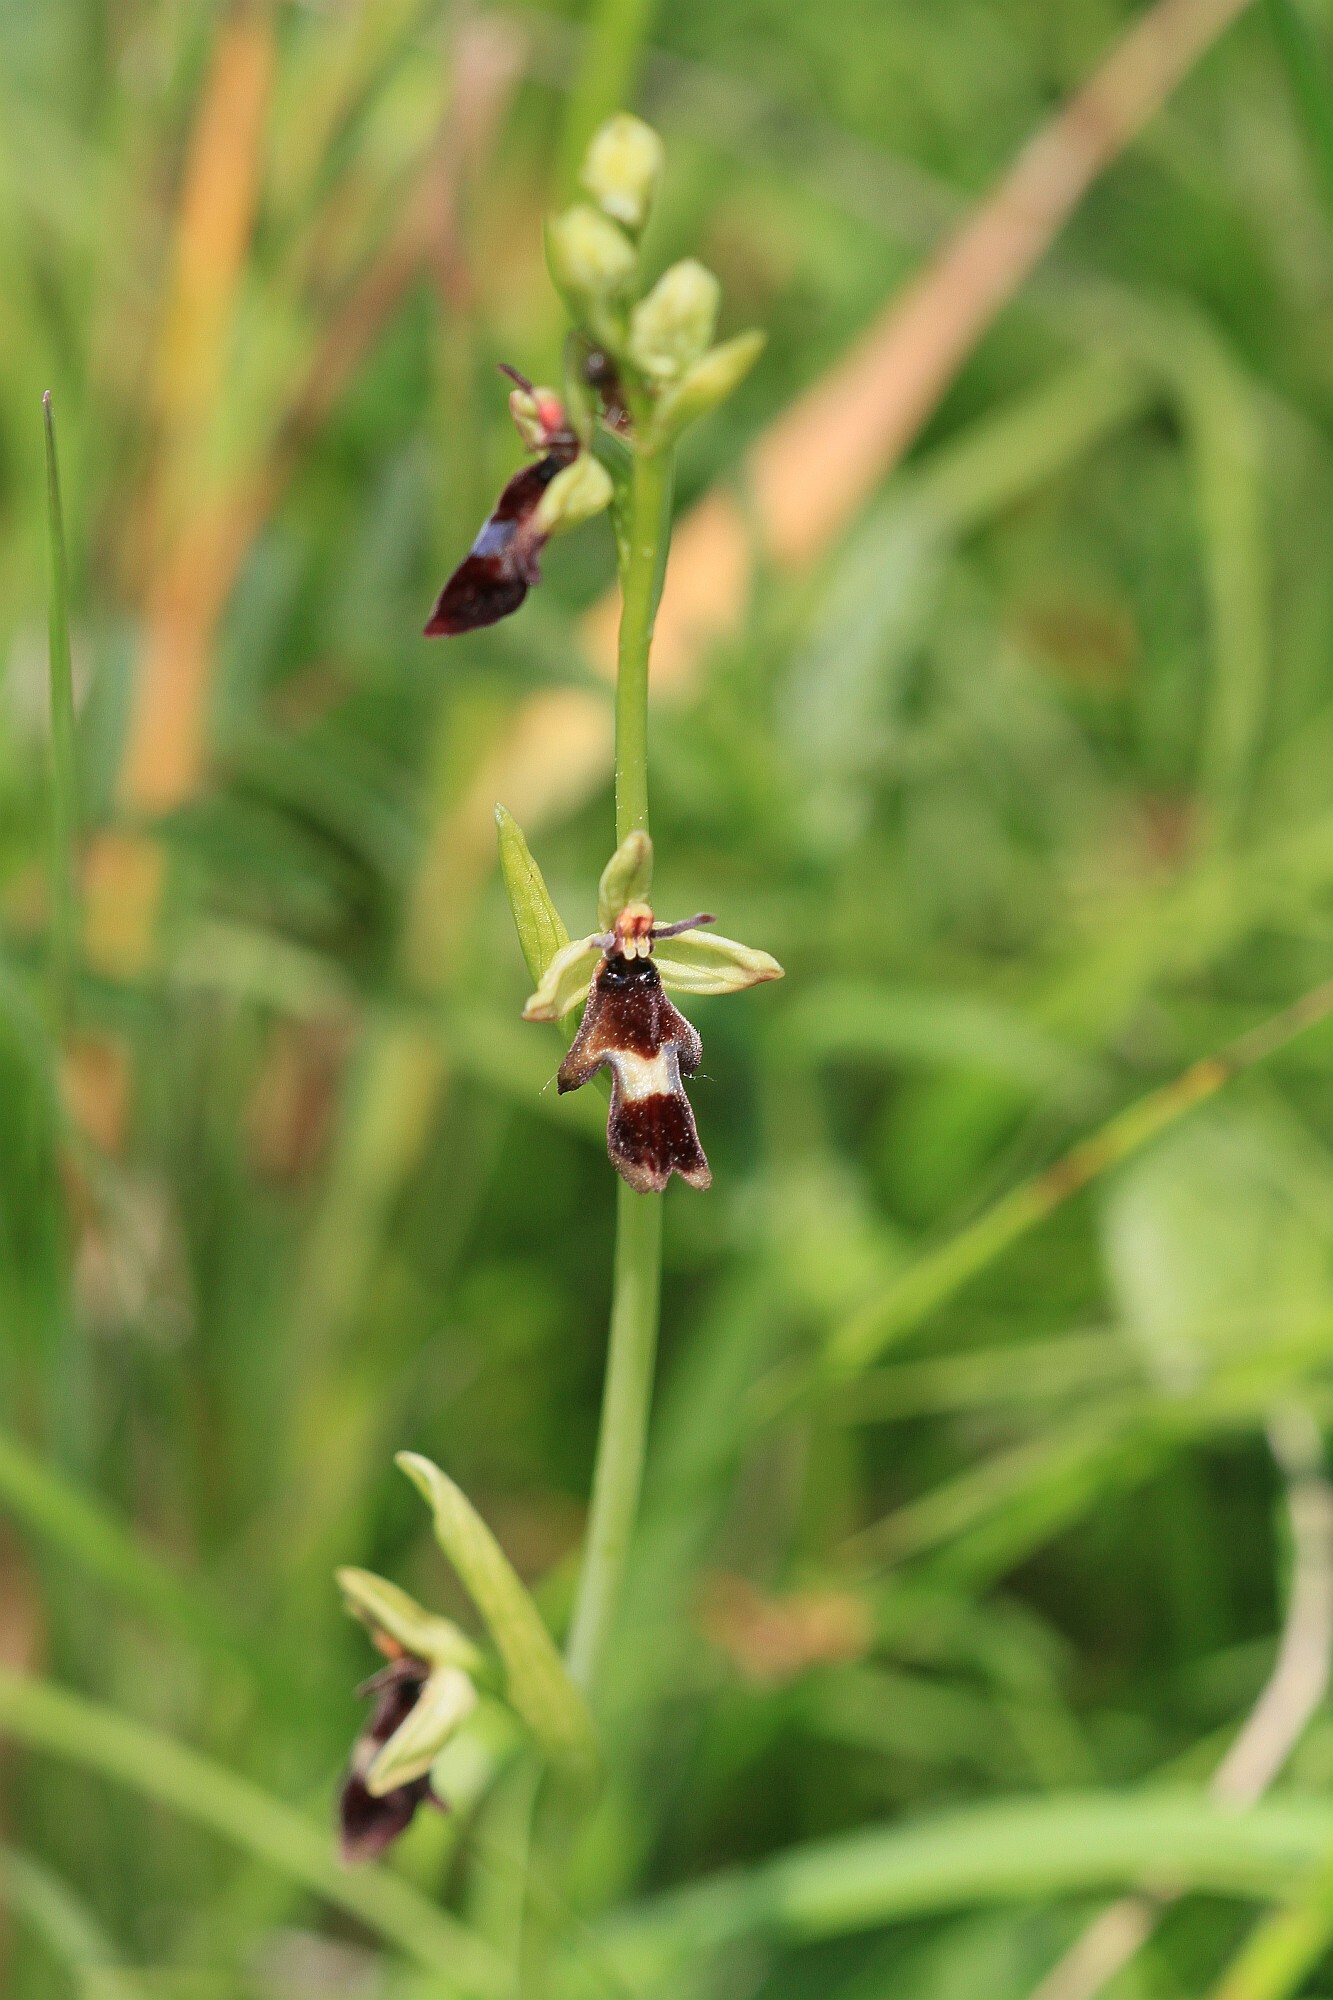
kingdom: Plantae
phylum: Tracheophyta
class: Liliopsida
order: Asparagales
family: Orchidaceae
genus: Ophrys
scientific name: Ophrys insectifera
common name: Fly orchid
